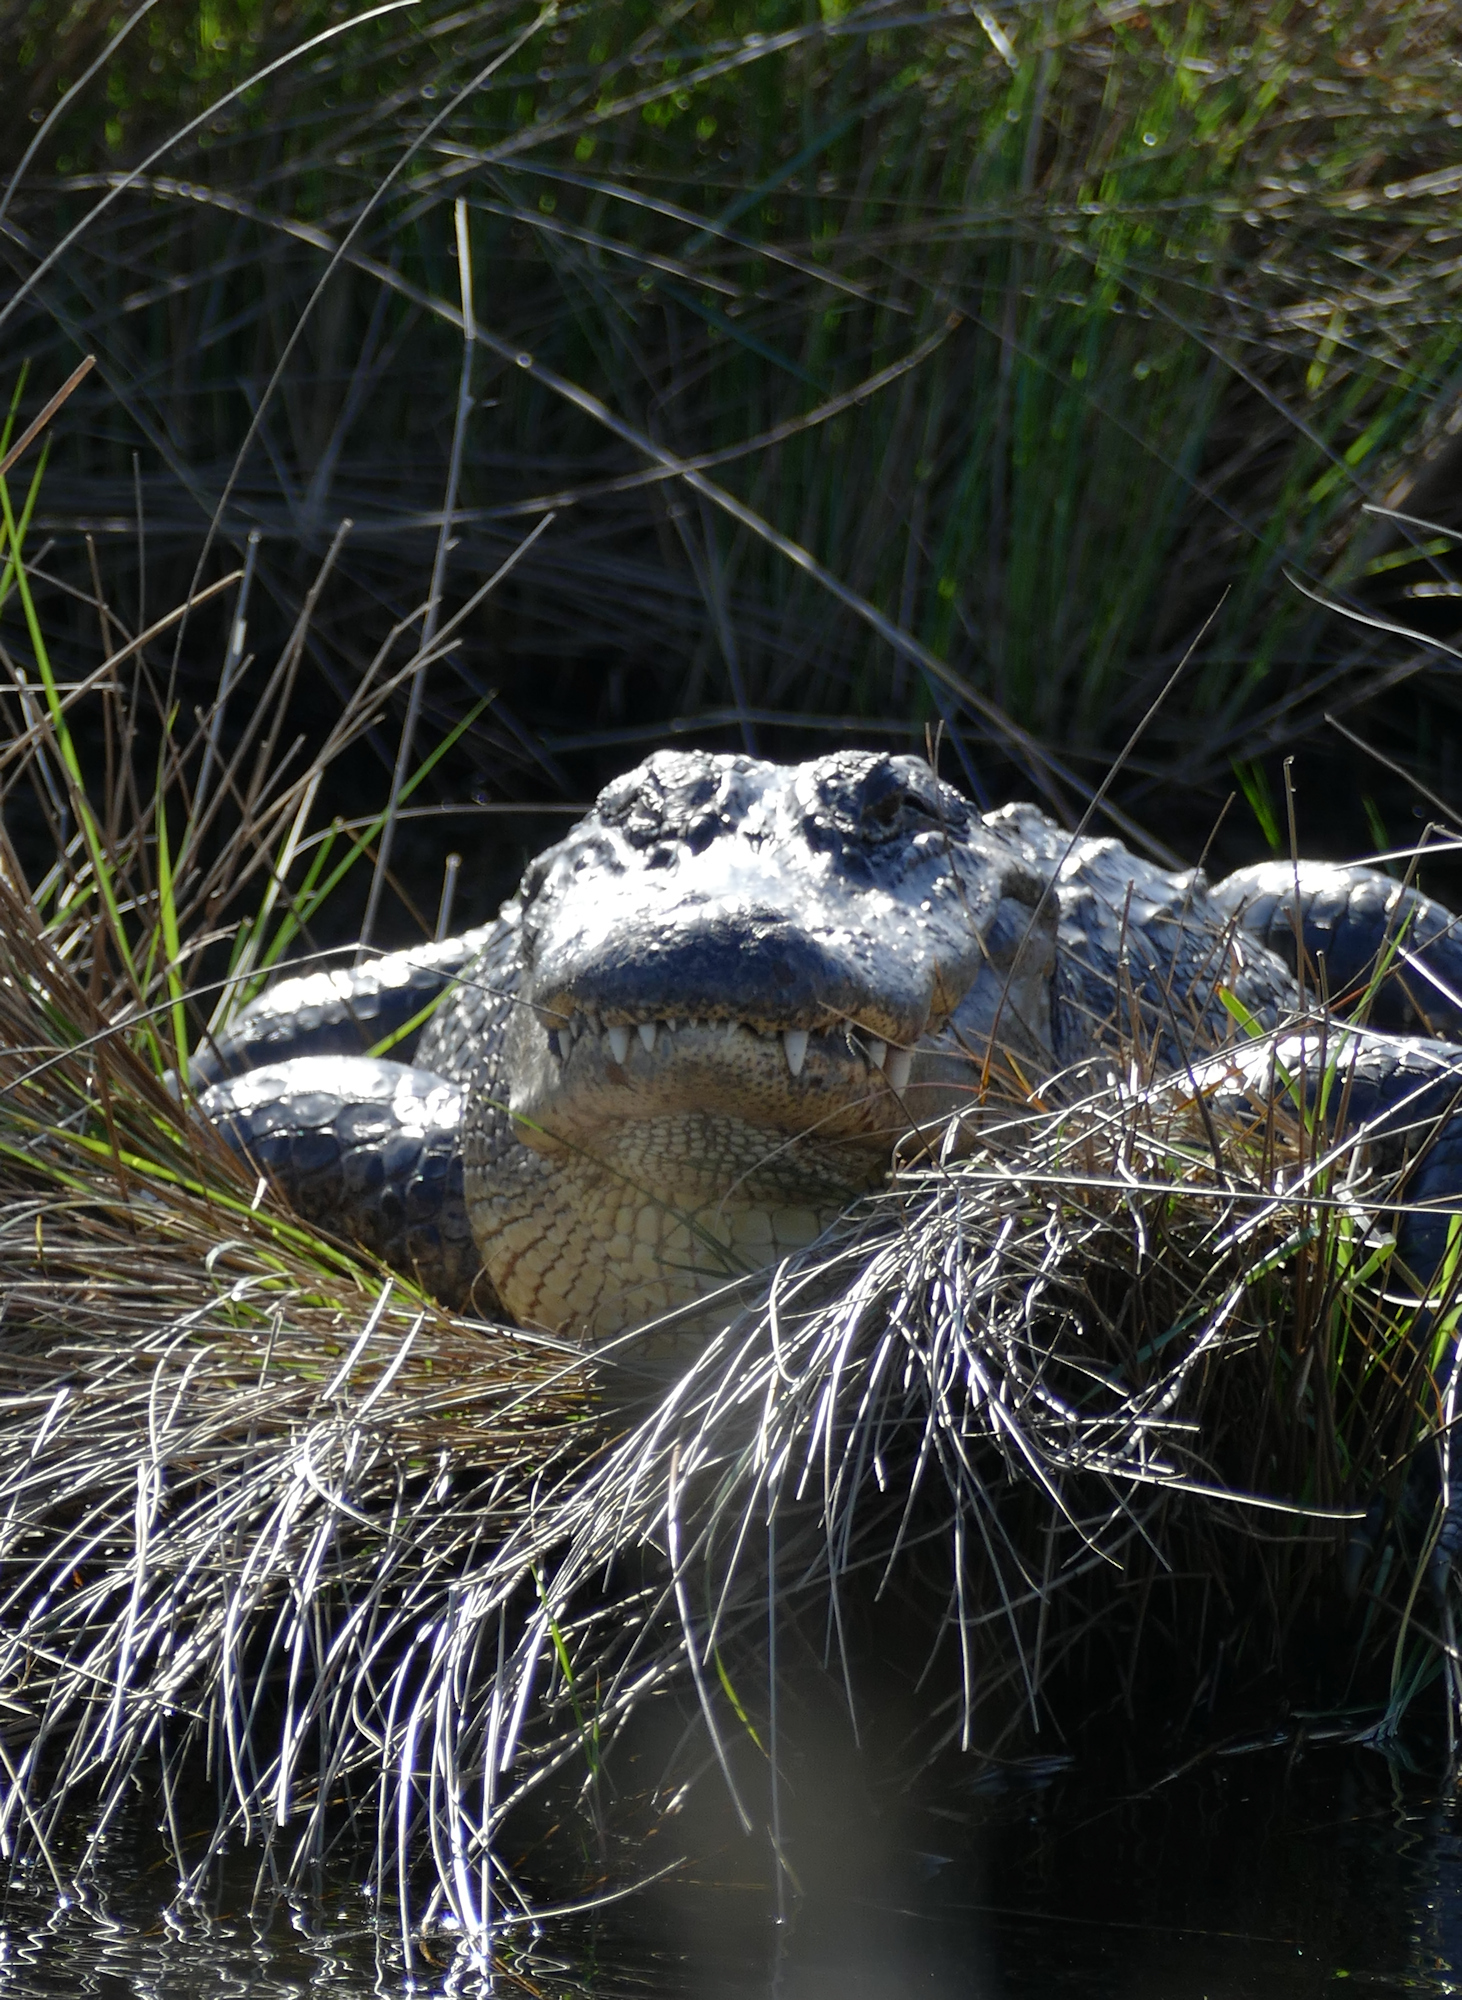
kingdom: Animalia
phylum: Chordata
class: Crocodylia
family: Alligatoridae
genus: Alligator
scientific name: Alligator mississippiensis
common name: American alligator
